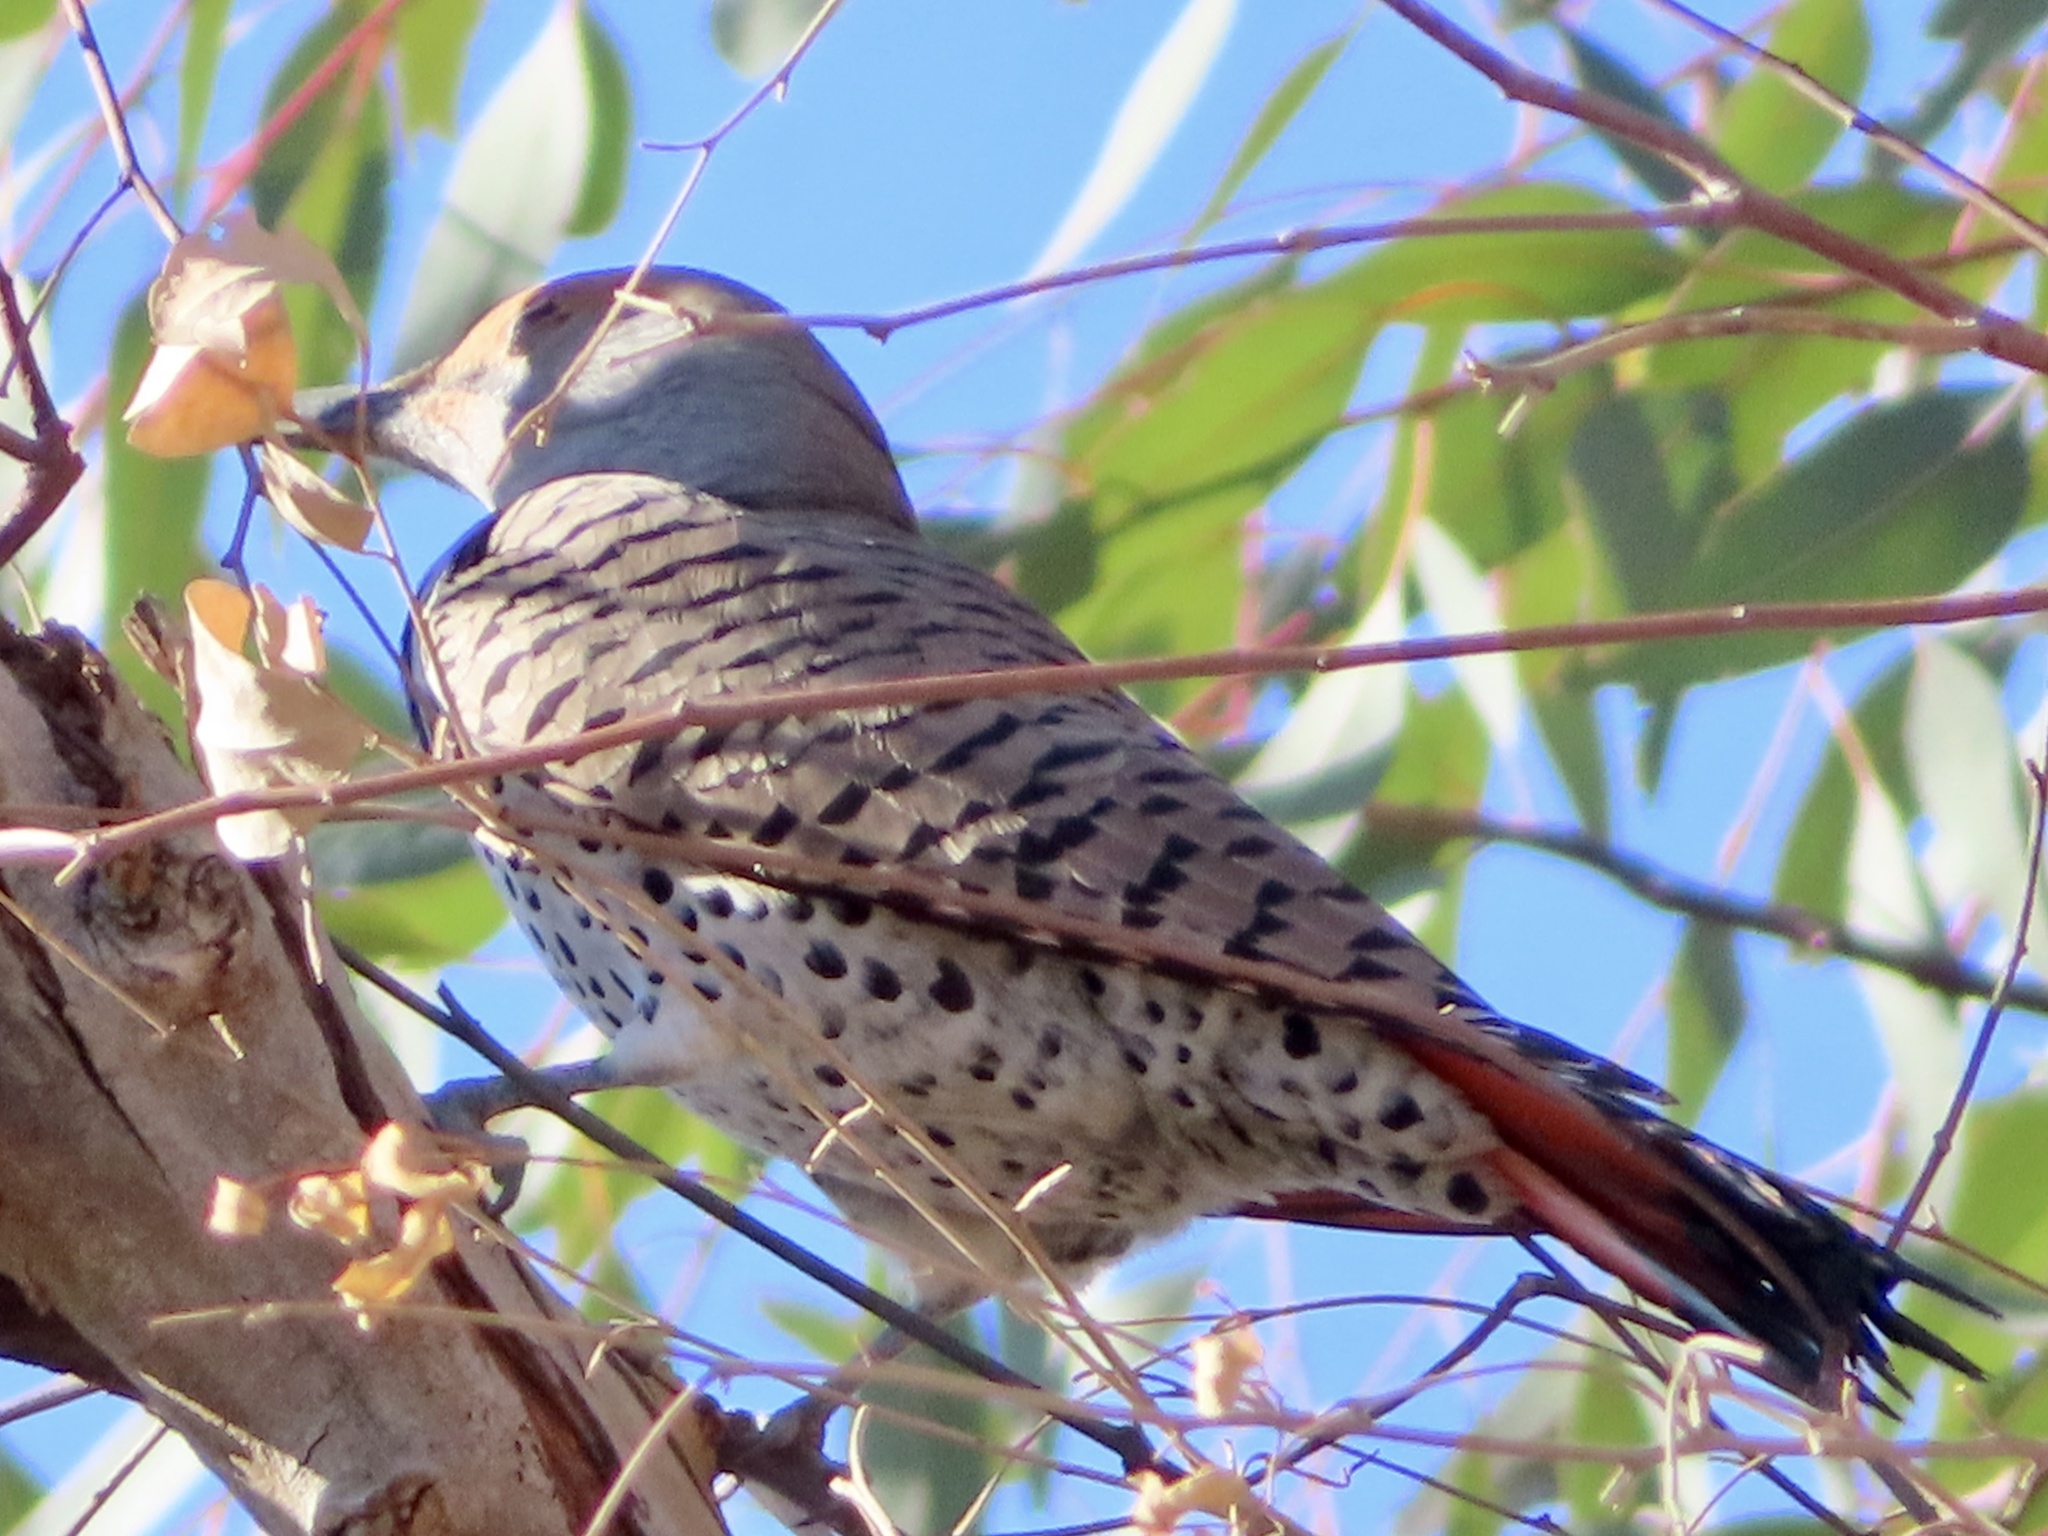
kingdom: Animalia
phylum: Chordata
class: Aves
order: Piciformes
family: Picidae
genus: Colaptes
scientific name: Colaptes auratus
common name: Northern flicker
